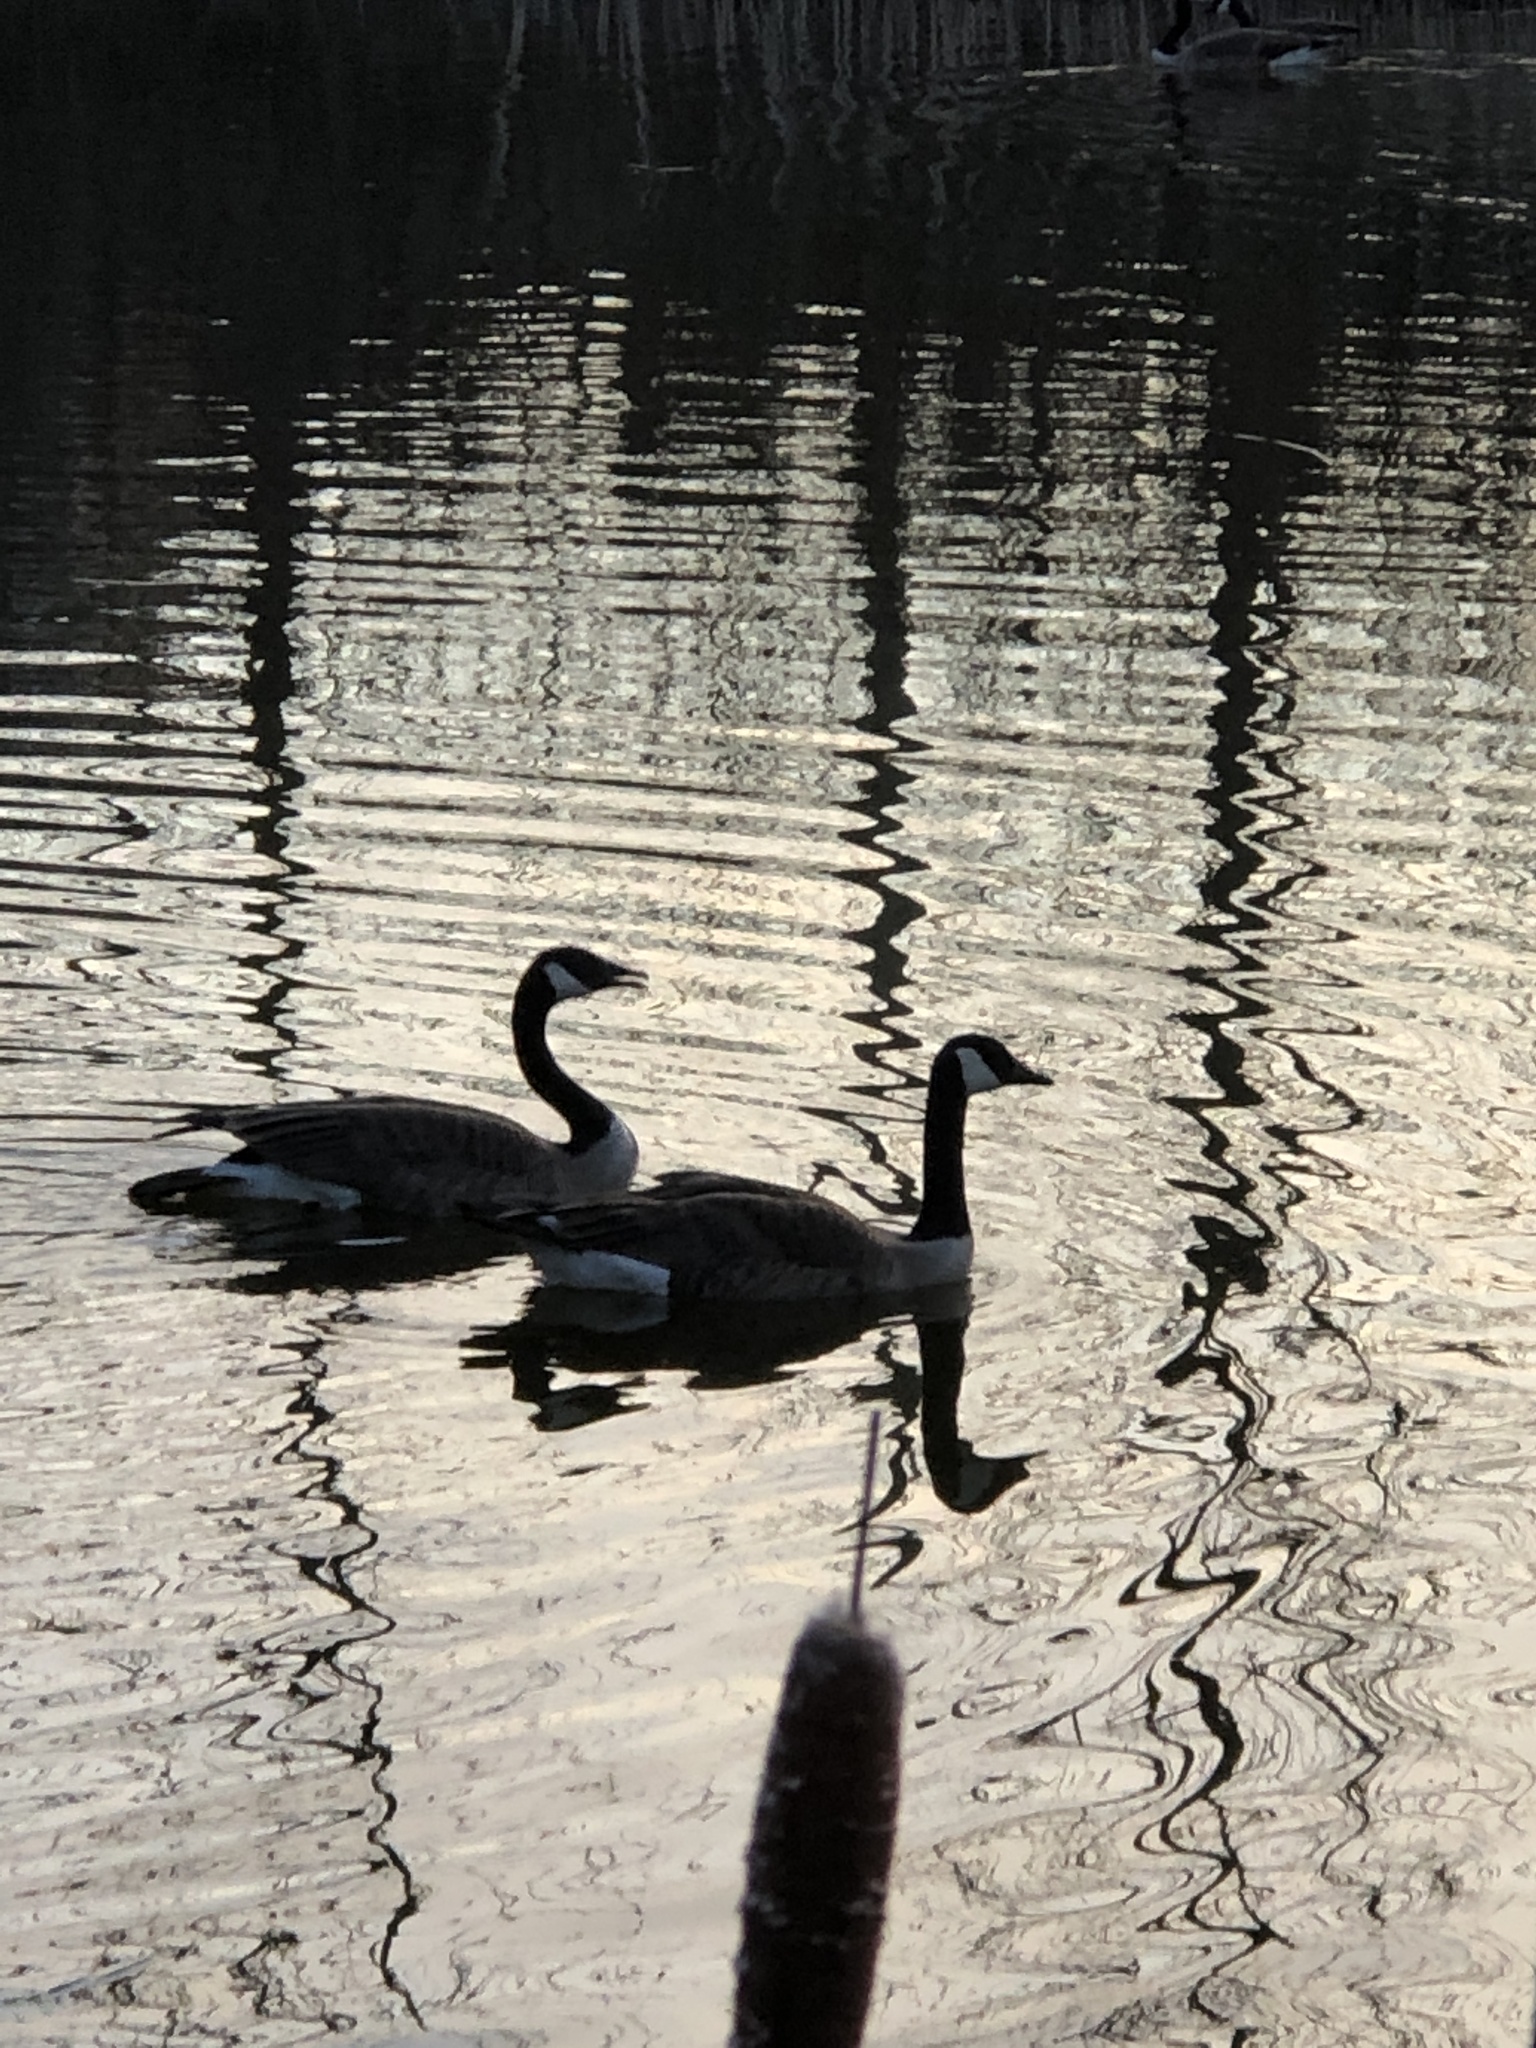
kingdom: Animalia
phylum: Chordata
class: Aves
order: Anseriformes
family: Anatidae
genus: Branta
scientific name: Branta canadensis
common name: Canada goose
